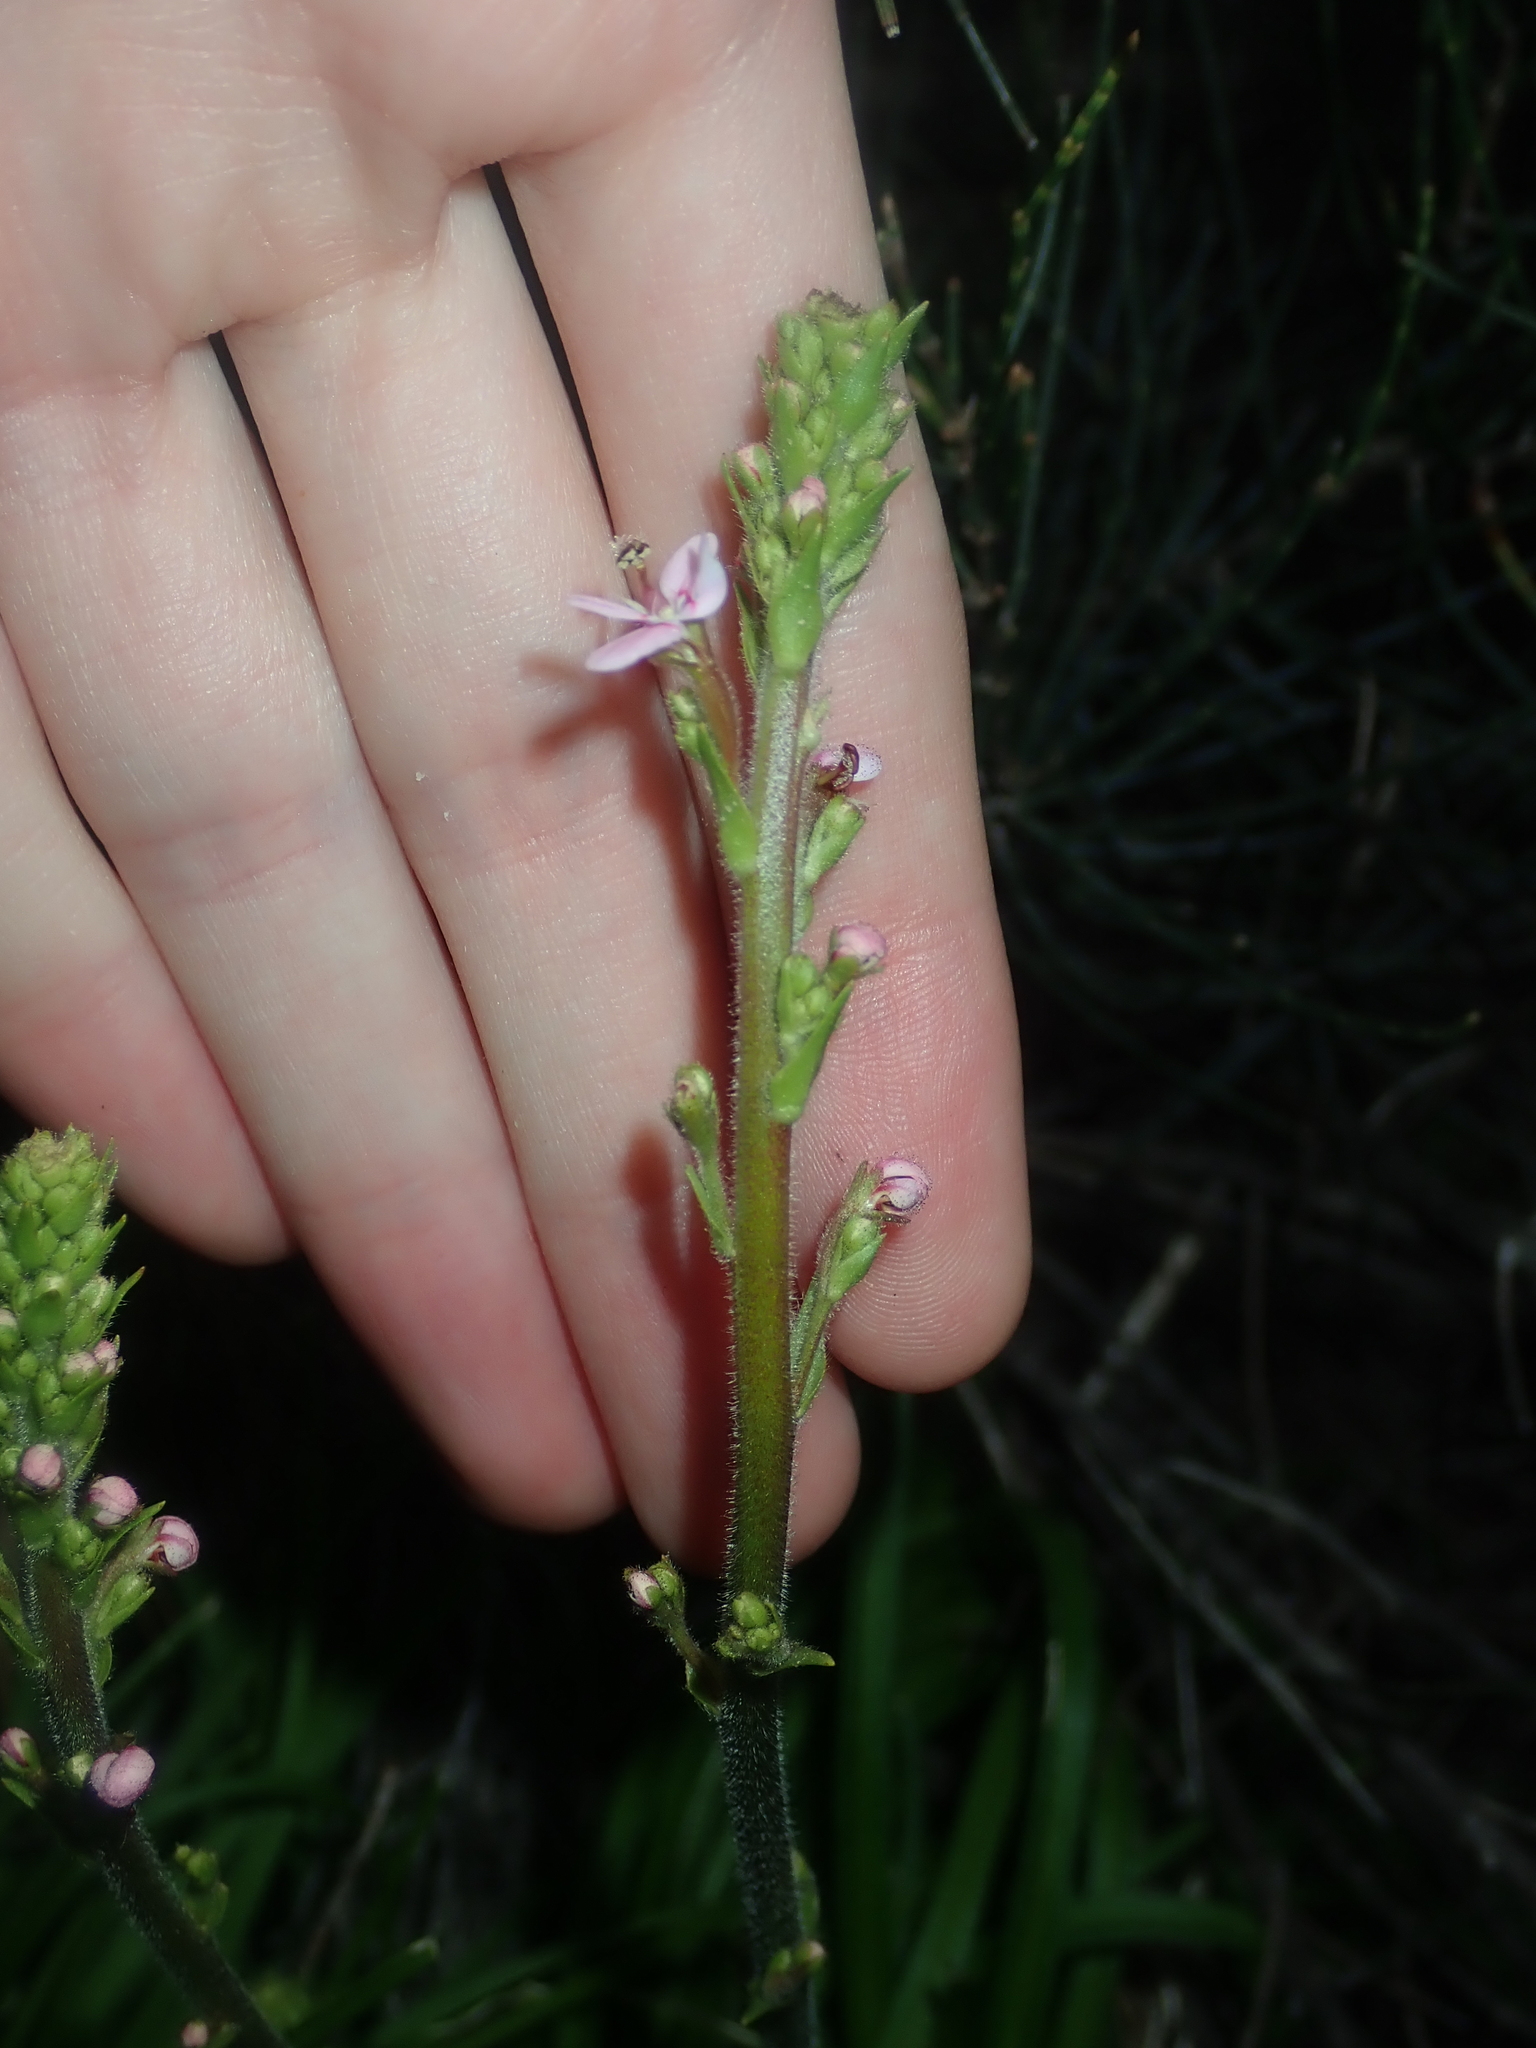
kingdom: Plantae
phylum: Tracheophyta
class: Magnoliopsida
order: Asterales
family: Stylidiaceae
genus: Stylidium
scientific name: Stylidium elongatum
